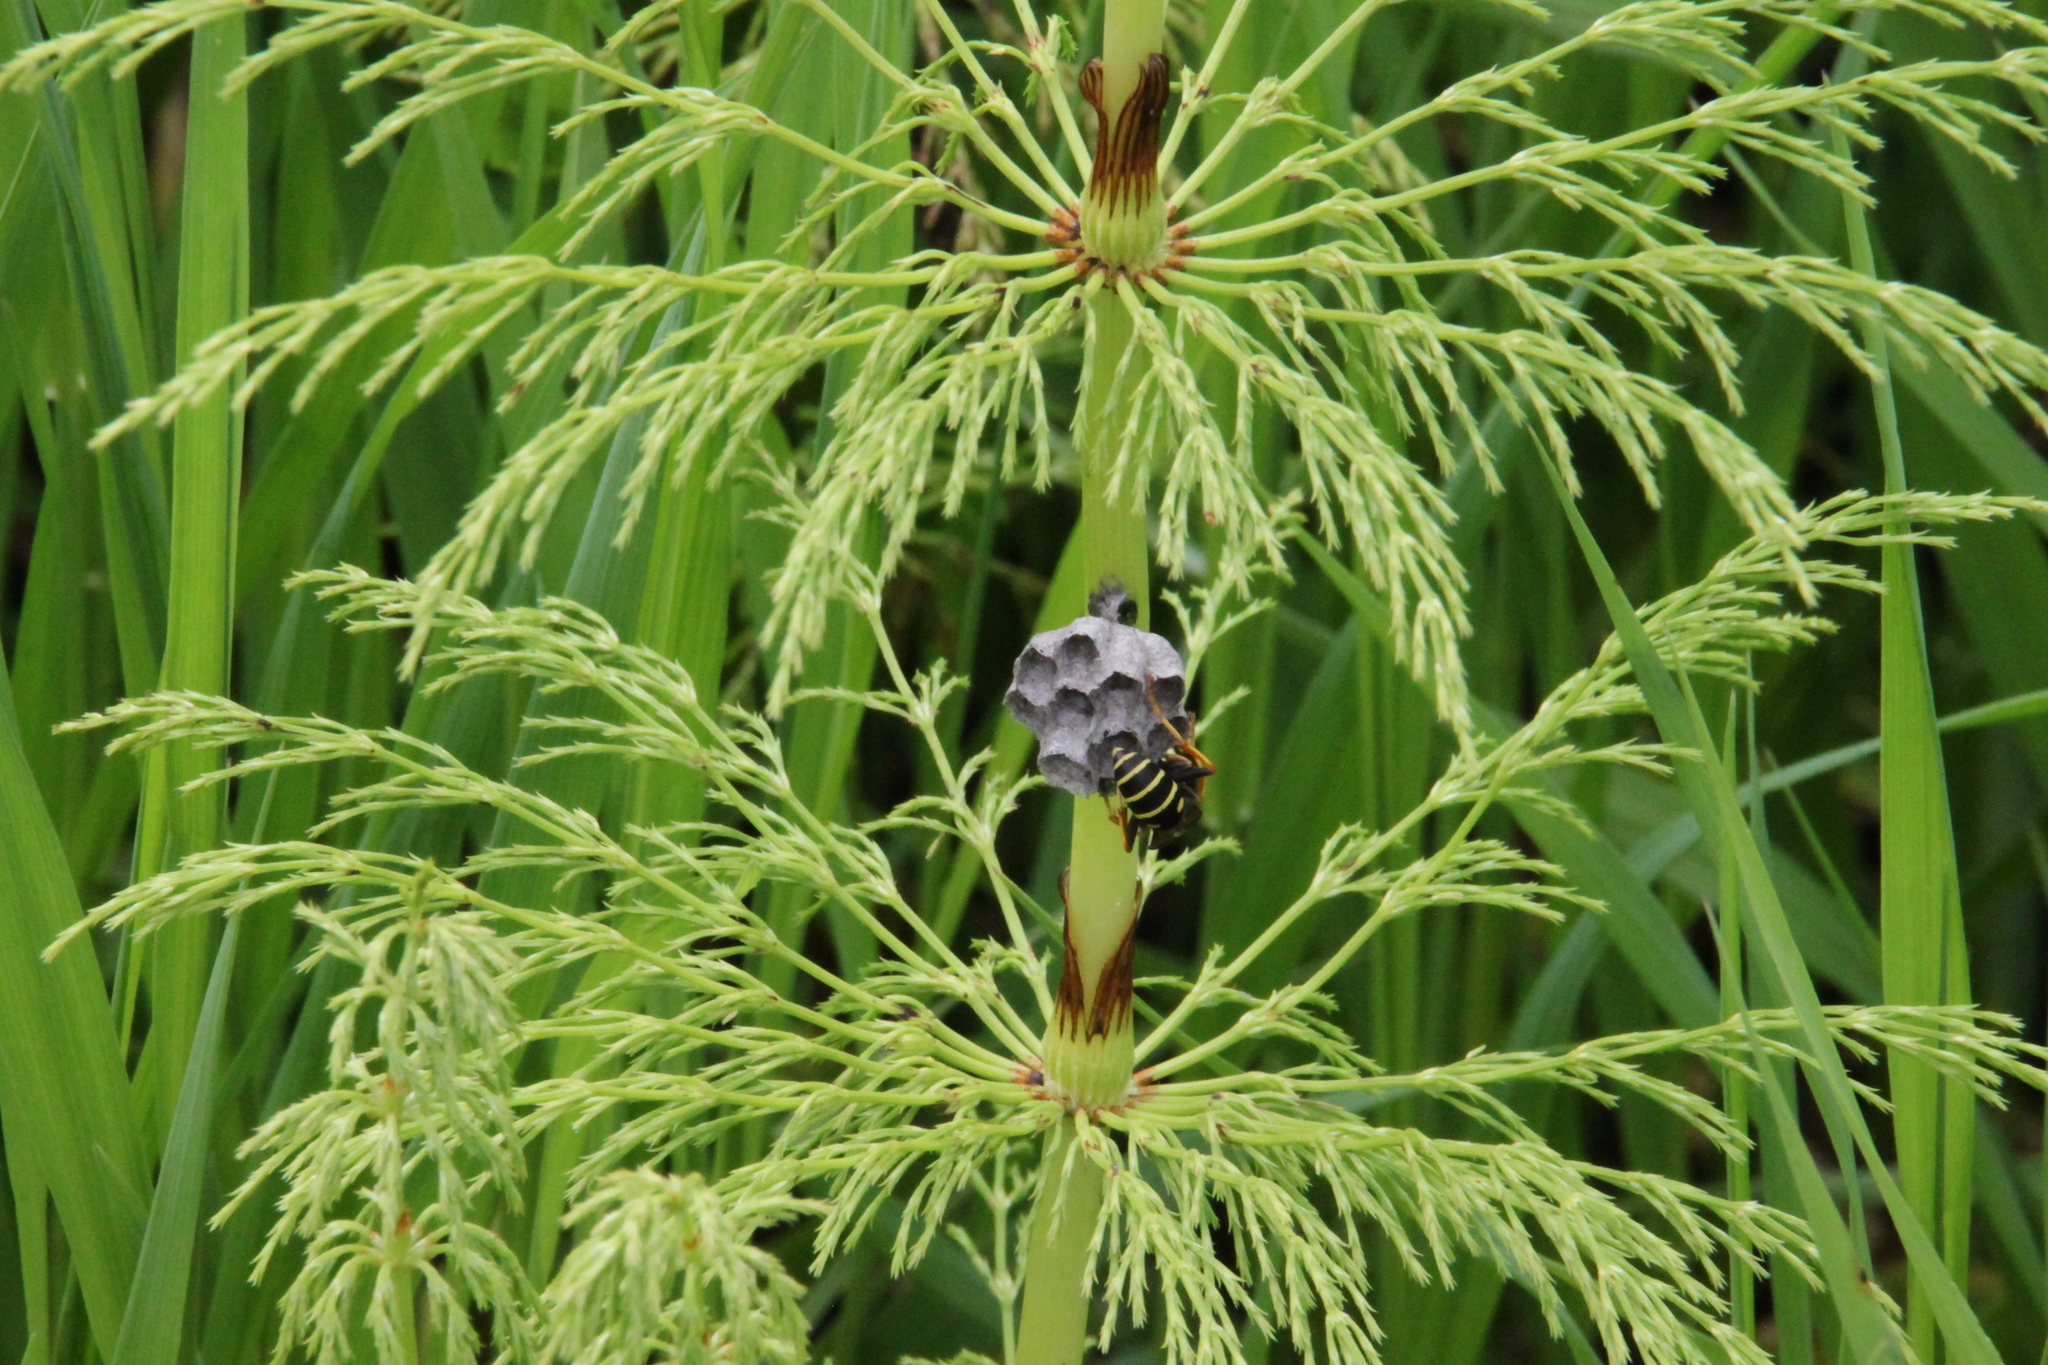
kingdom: Animalia
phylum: Arthropoda
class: Insecta
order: Hymenoptera
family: Eumenidae
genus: Polistes
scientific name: Polistes nimpha
